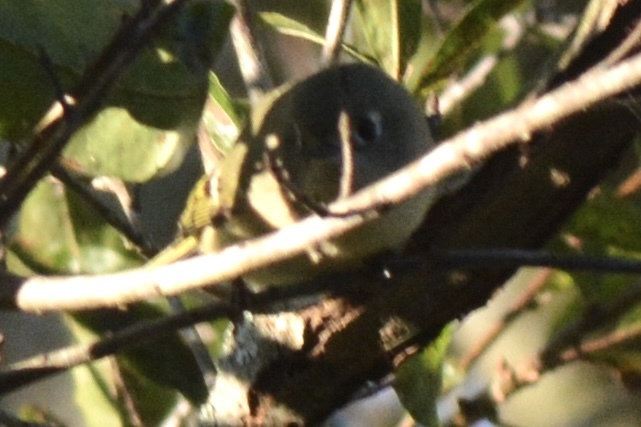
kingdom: Animalia
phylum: Chordata
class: Aves
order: Passeriformes
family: Regulidae
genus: Regulus
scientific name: Regulus calendula
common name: Ruby-crowned kinglet
